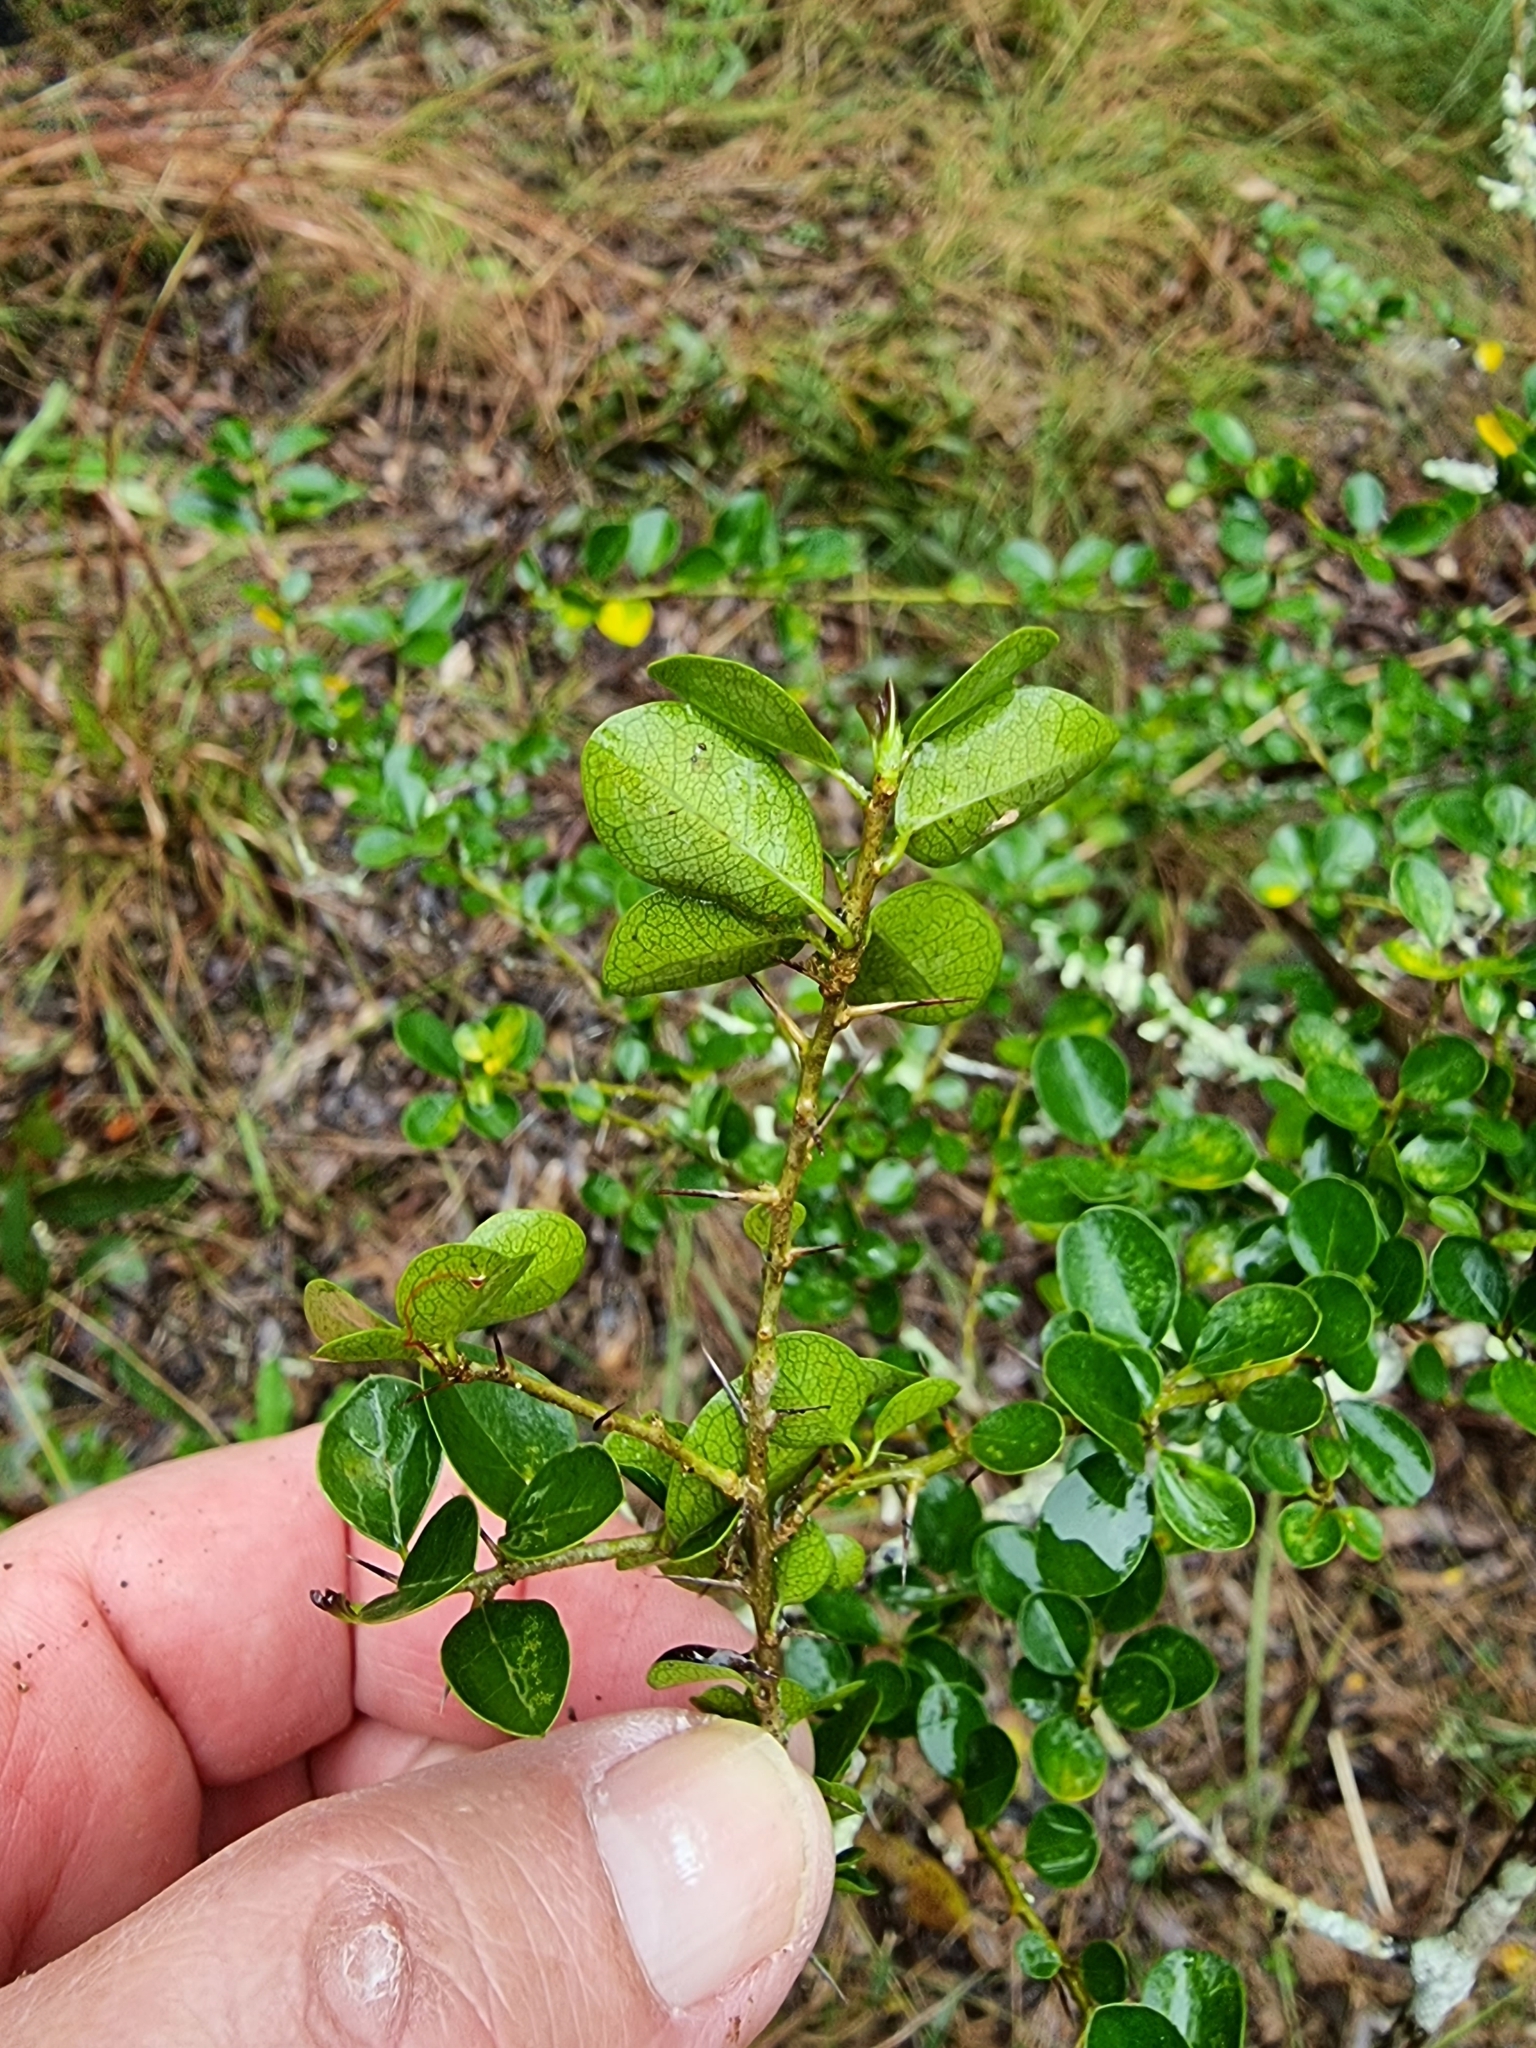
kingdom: Plantae
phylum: Tracheophyta
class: Magnoliopsida
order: Fabales
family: Fabaceae
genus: Glycine
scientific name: Glycine tabacina
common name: Pea glycine
